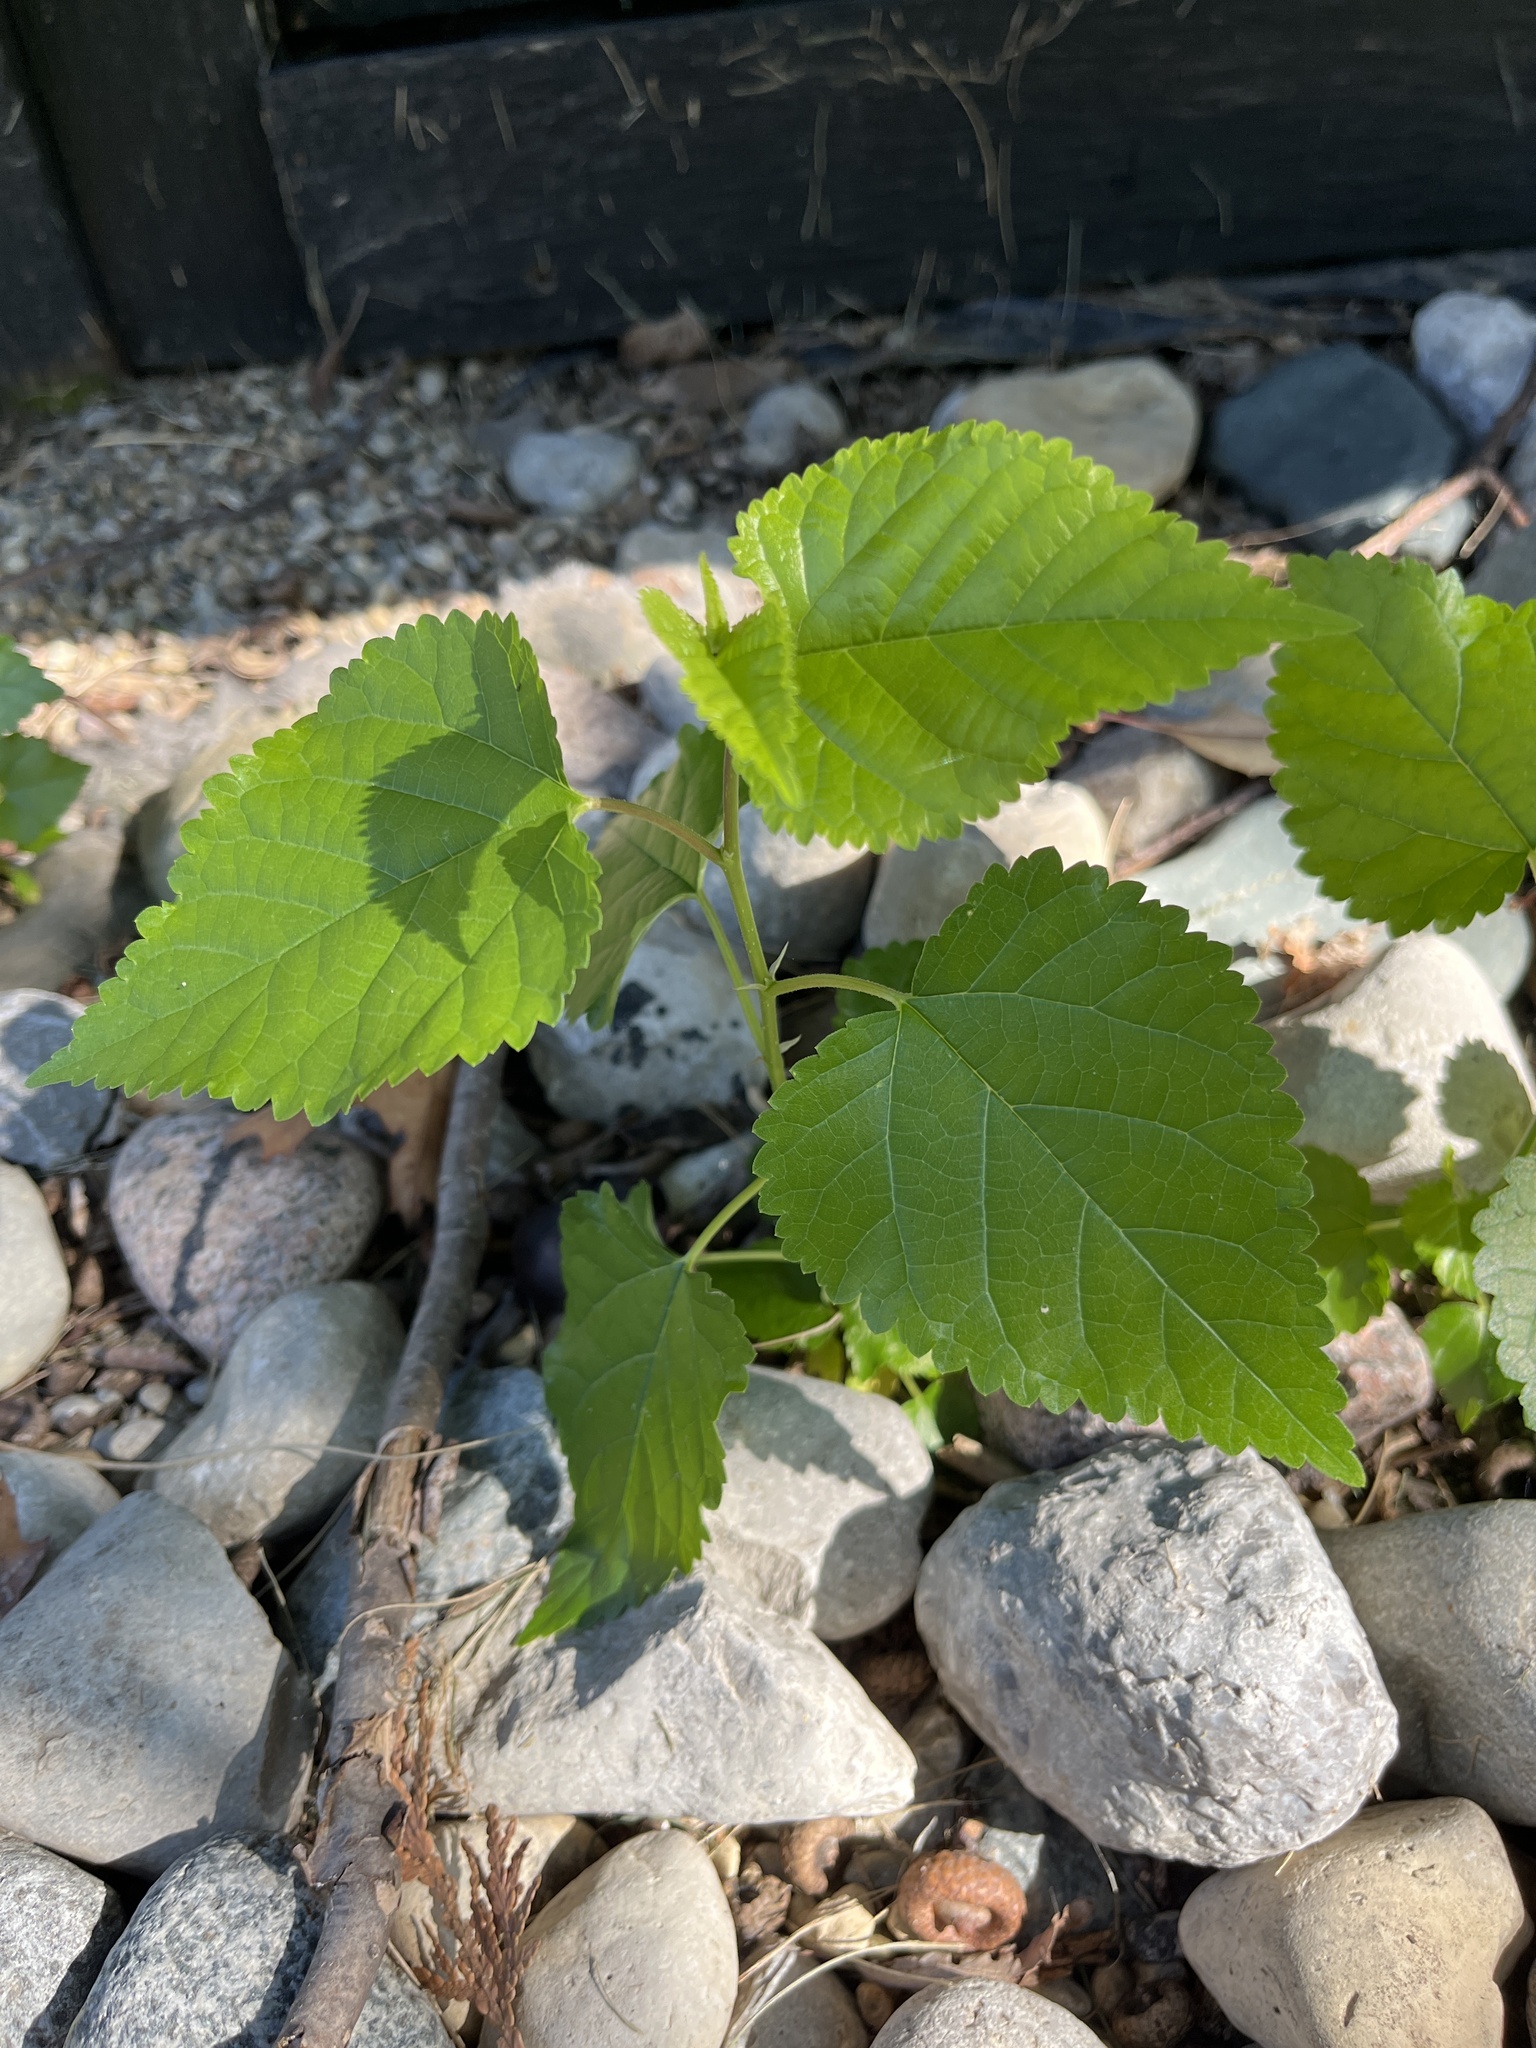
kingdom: Plantae
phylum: Tracheophyta
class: Magnoliopsida
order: Rosales
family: Moraceae
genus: Morus
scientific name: Morus alba
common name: White mulberry
